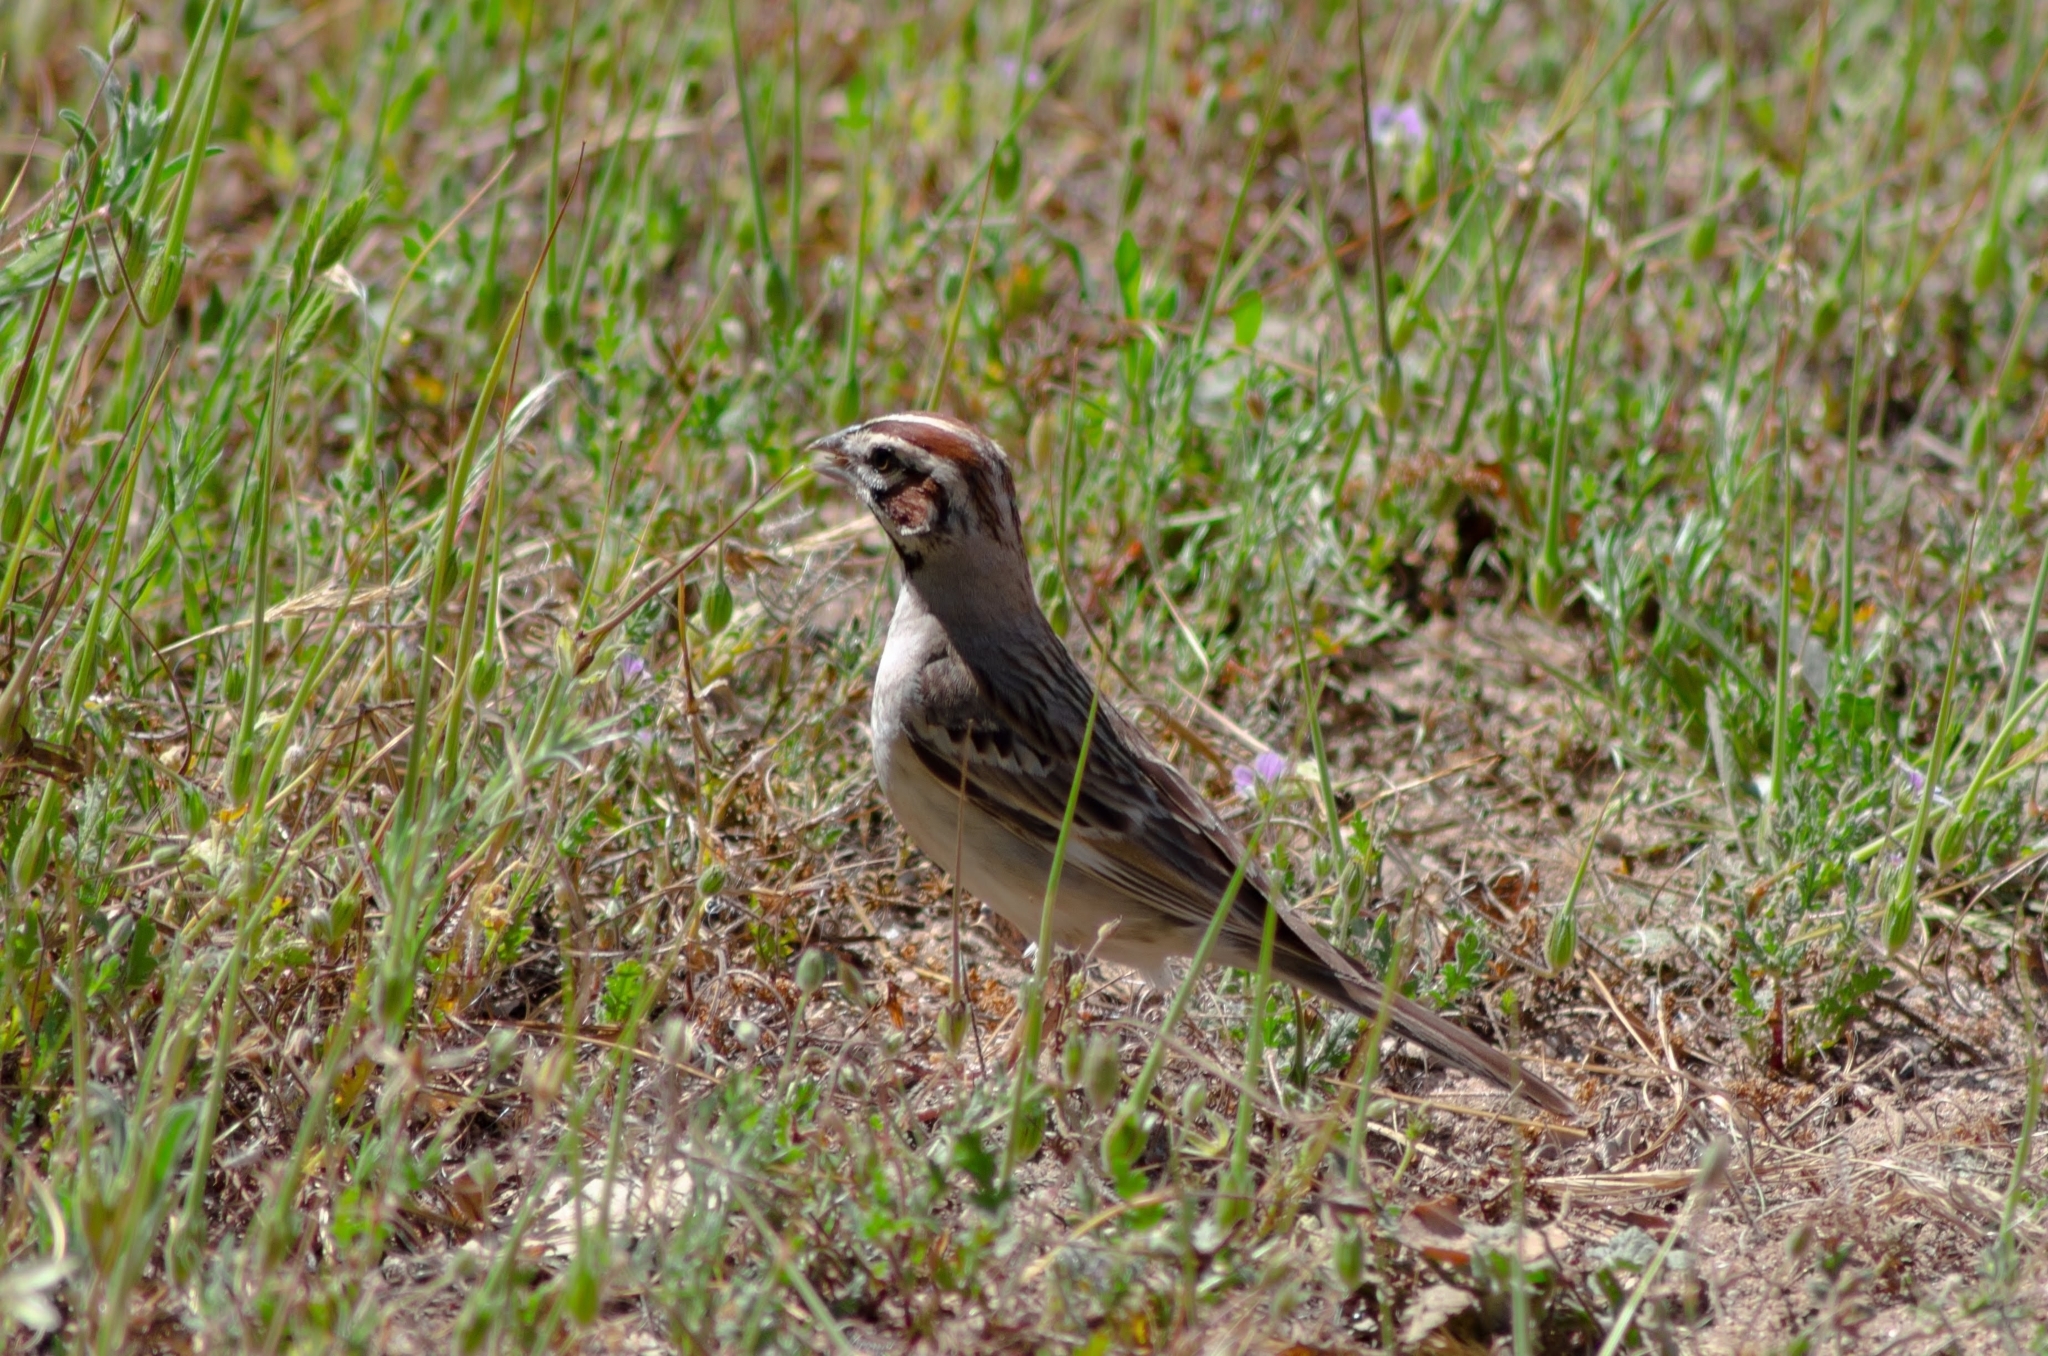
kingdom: Animalia
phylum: Chordata
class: Aves
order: Passeriformes
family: Passerellidae
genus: Chondestes
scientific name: Chondestes grammacus
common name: Lark sparrow
